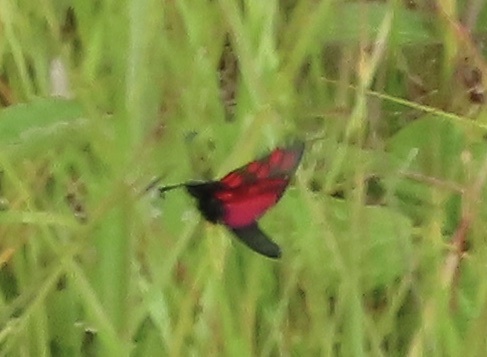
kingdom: Animalia
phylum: Arthropoda
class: Insecta
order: Lepidoptera
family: Zygaenidae
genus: Zygaena
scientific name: Zygaena filipendulae
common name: Six-spot burnet
